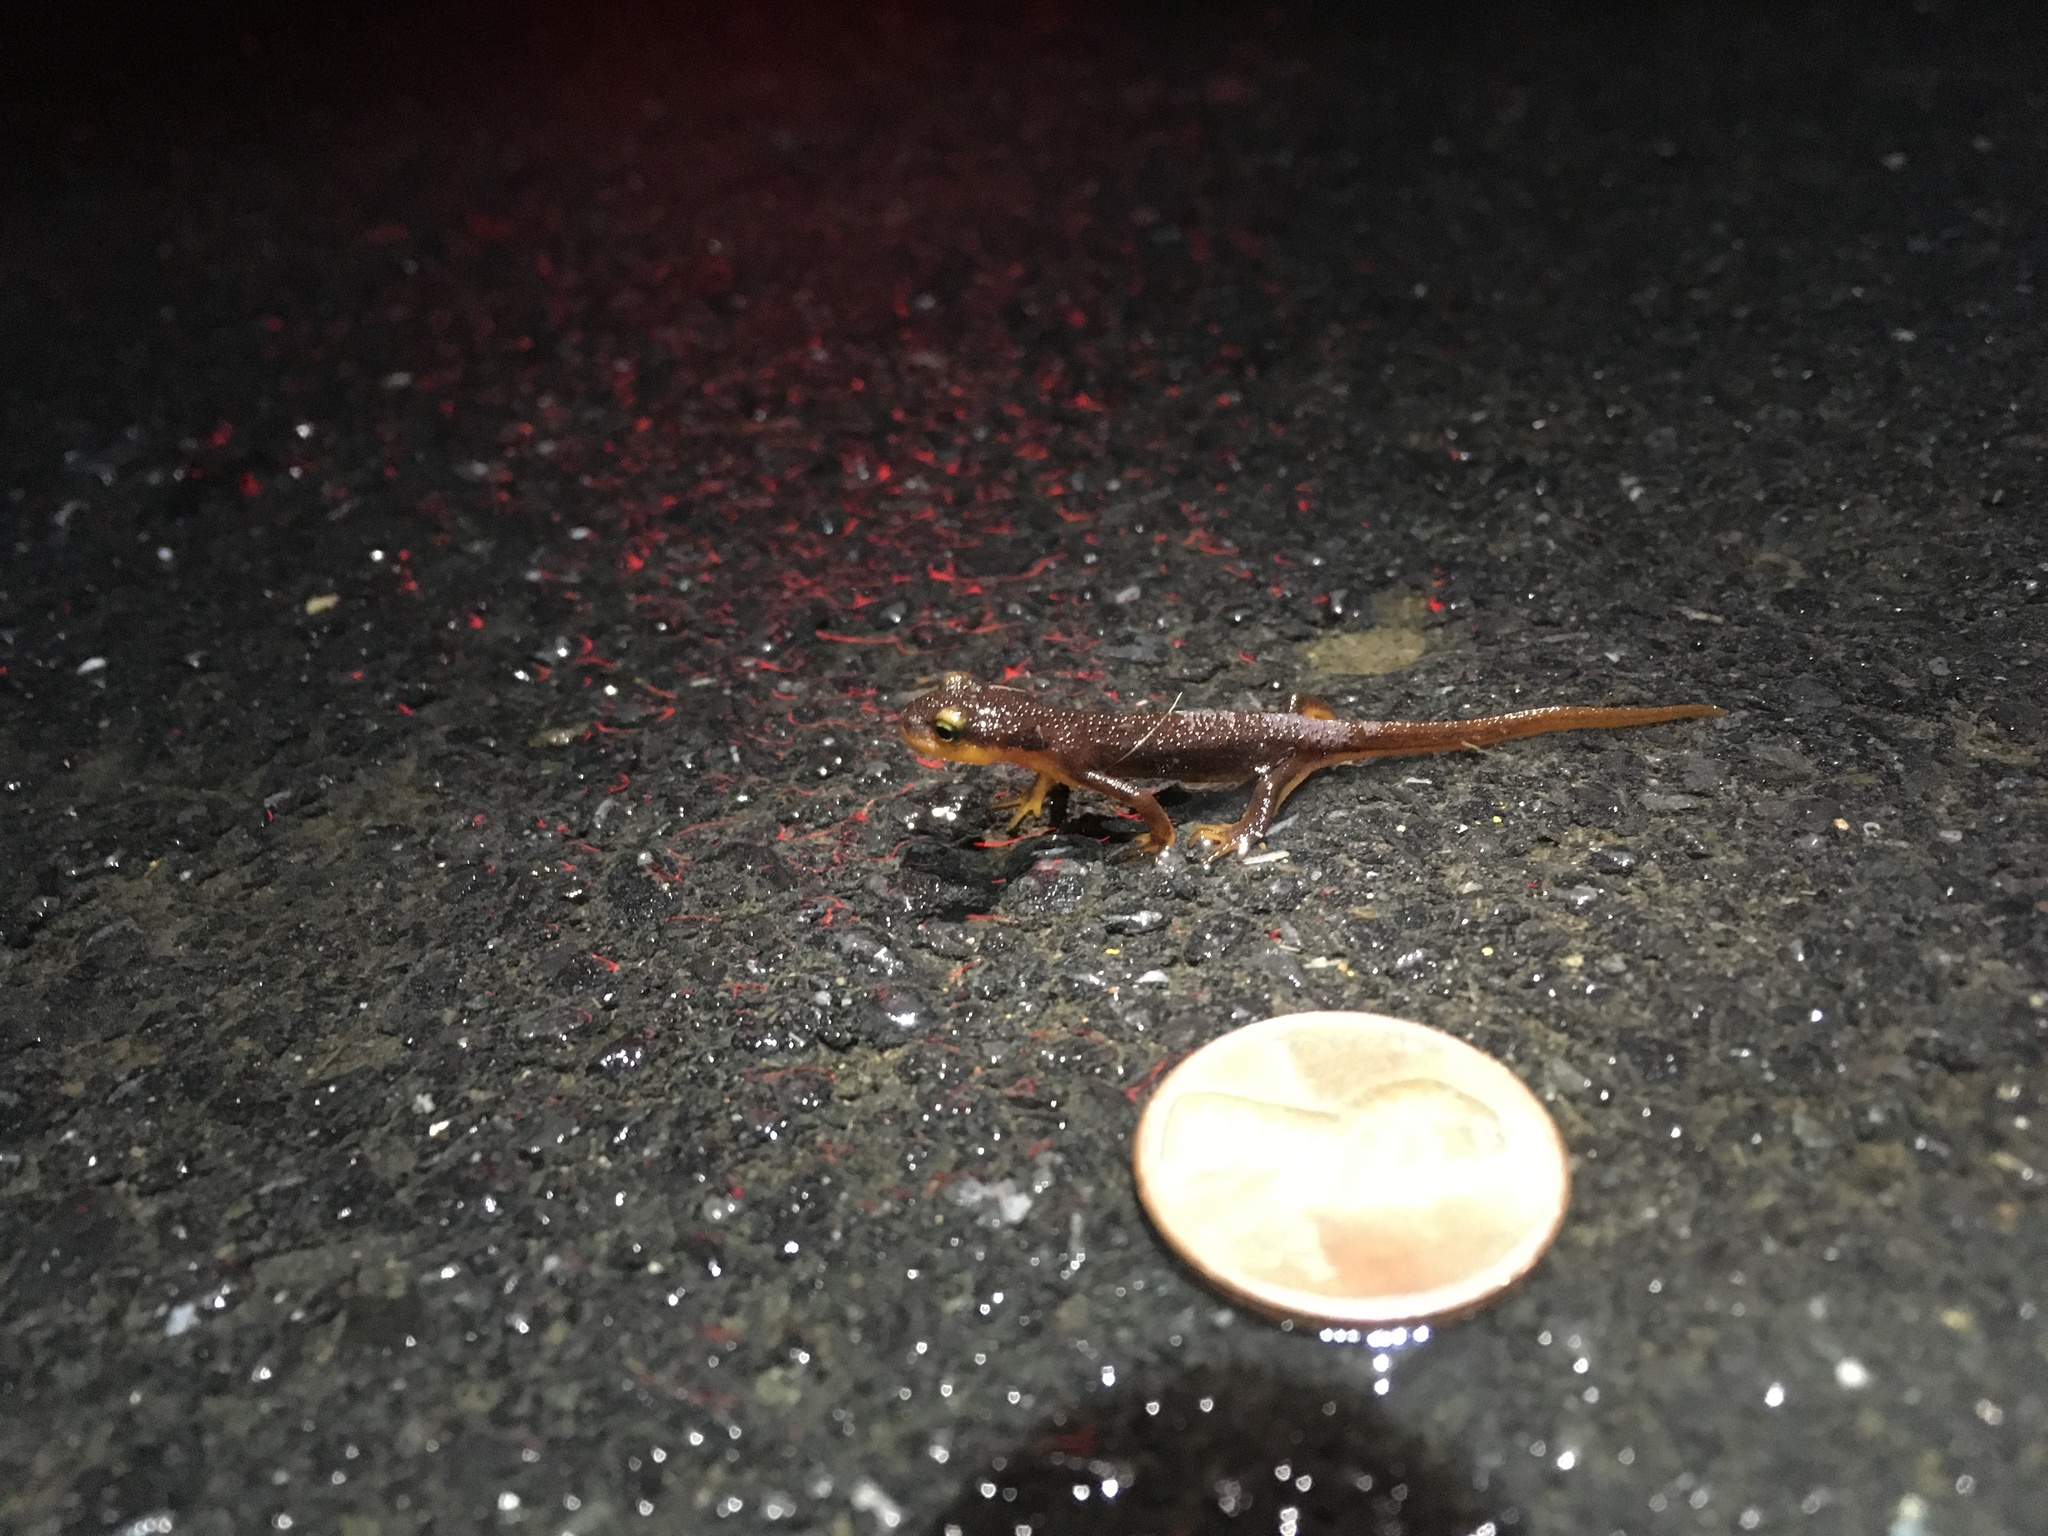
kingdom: Animalia
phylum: Chordata
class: Amphibia
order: Caudata
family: Salamandridae
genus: Taricha
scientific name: Taricha torosa
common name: California newt
